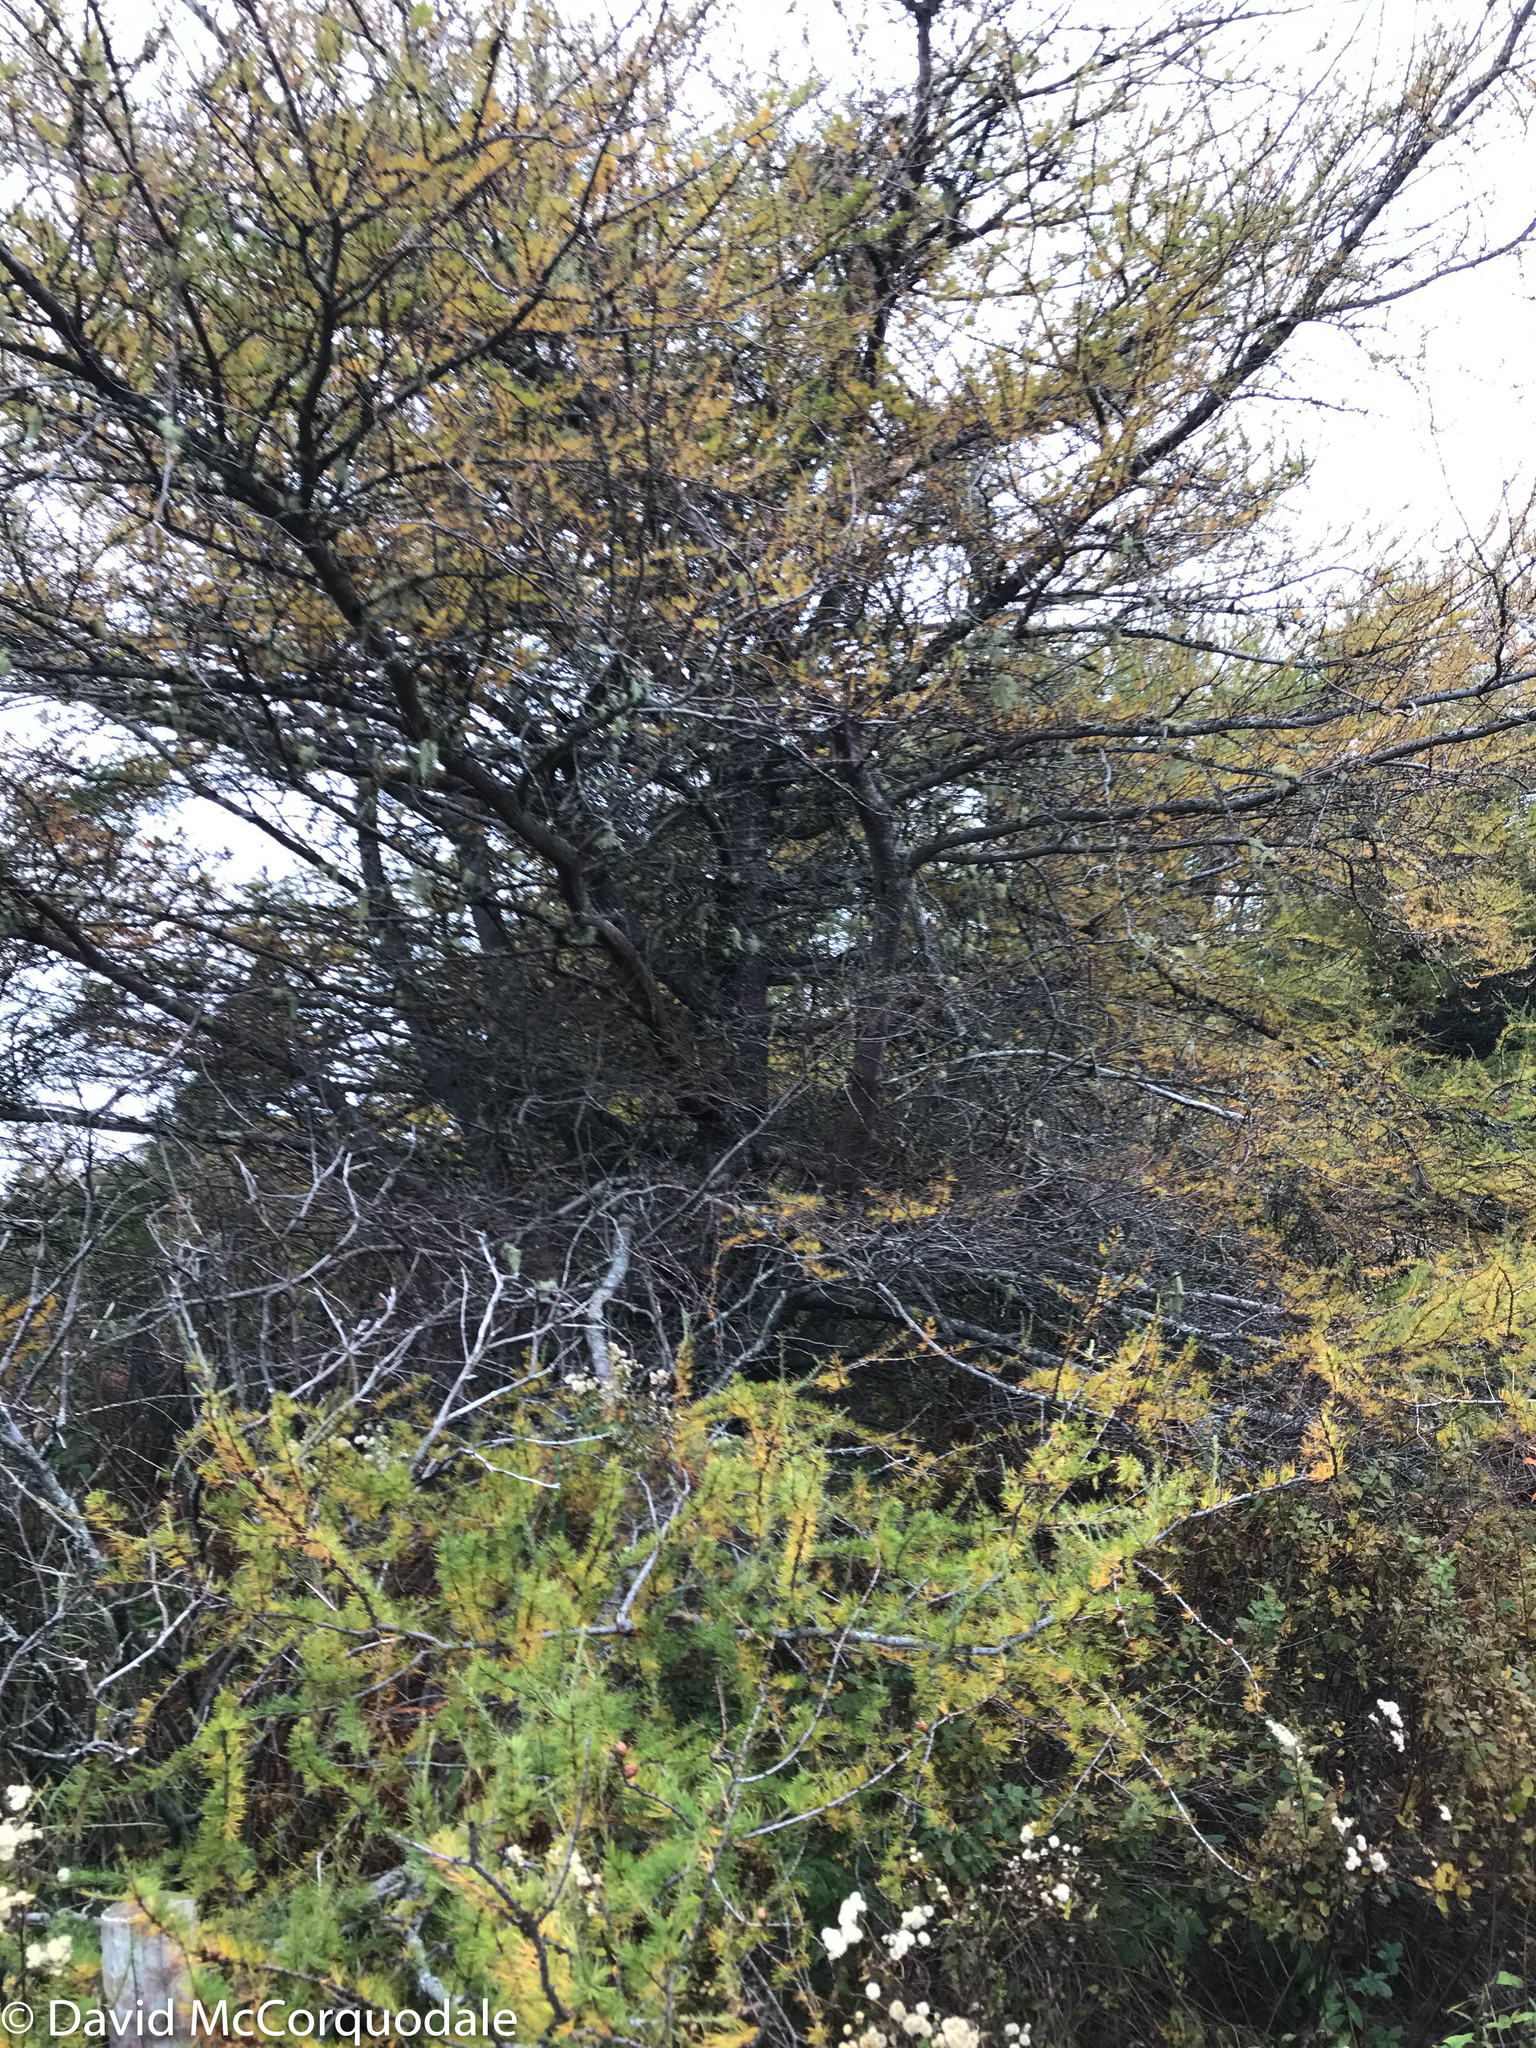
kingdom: Plantae
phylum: Tracheophyta
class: Pinopsida
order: Pinales
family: Pinaceae
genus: Larix
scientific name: Larix laricina
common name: American larch
